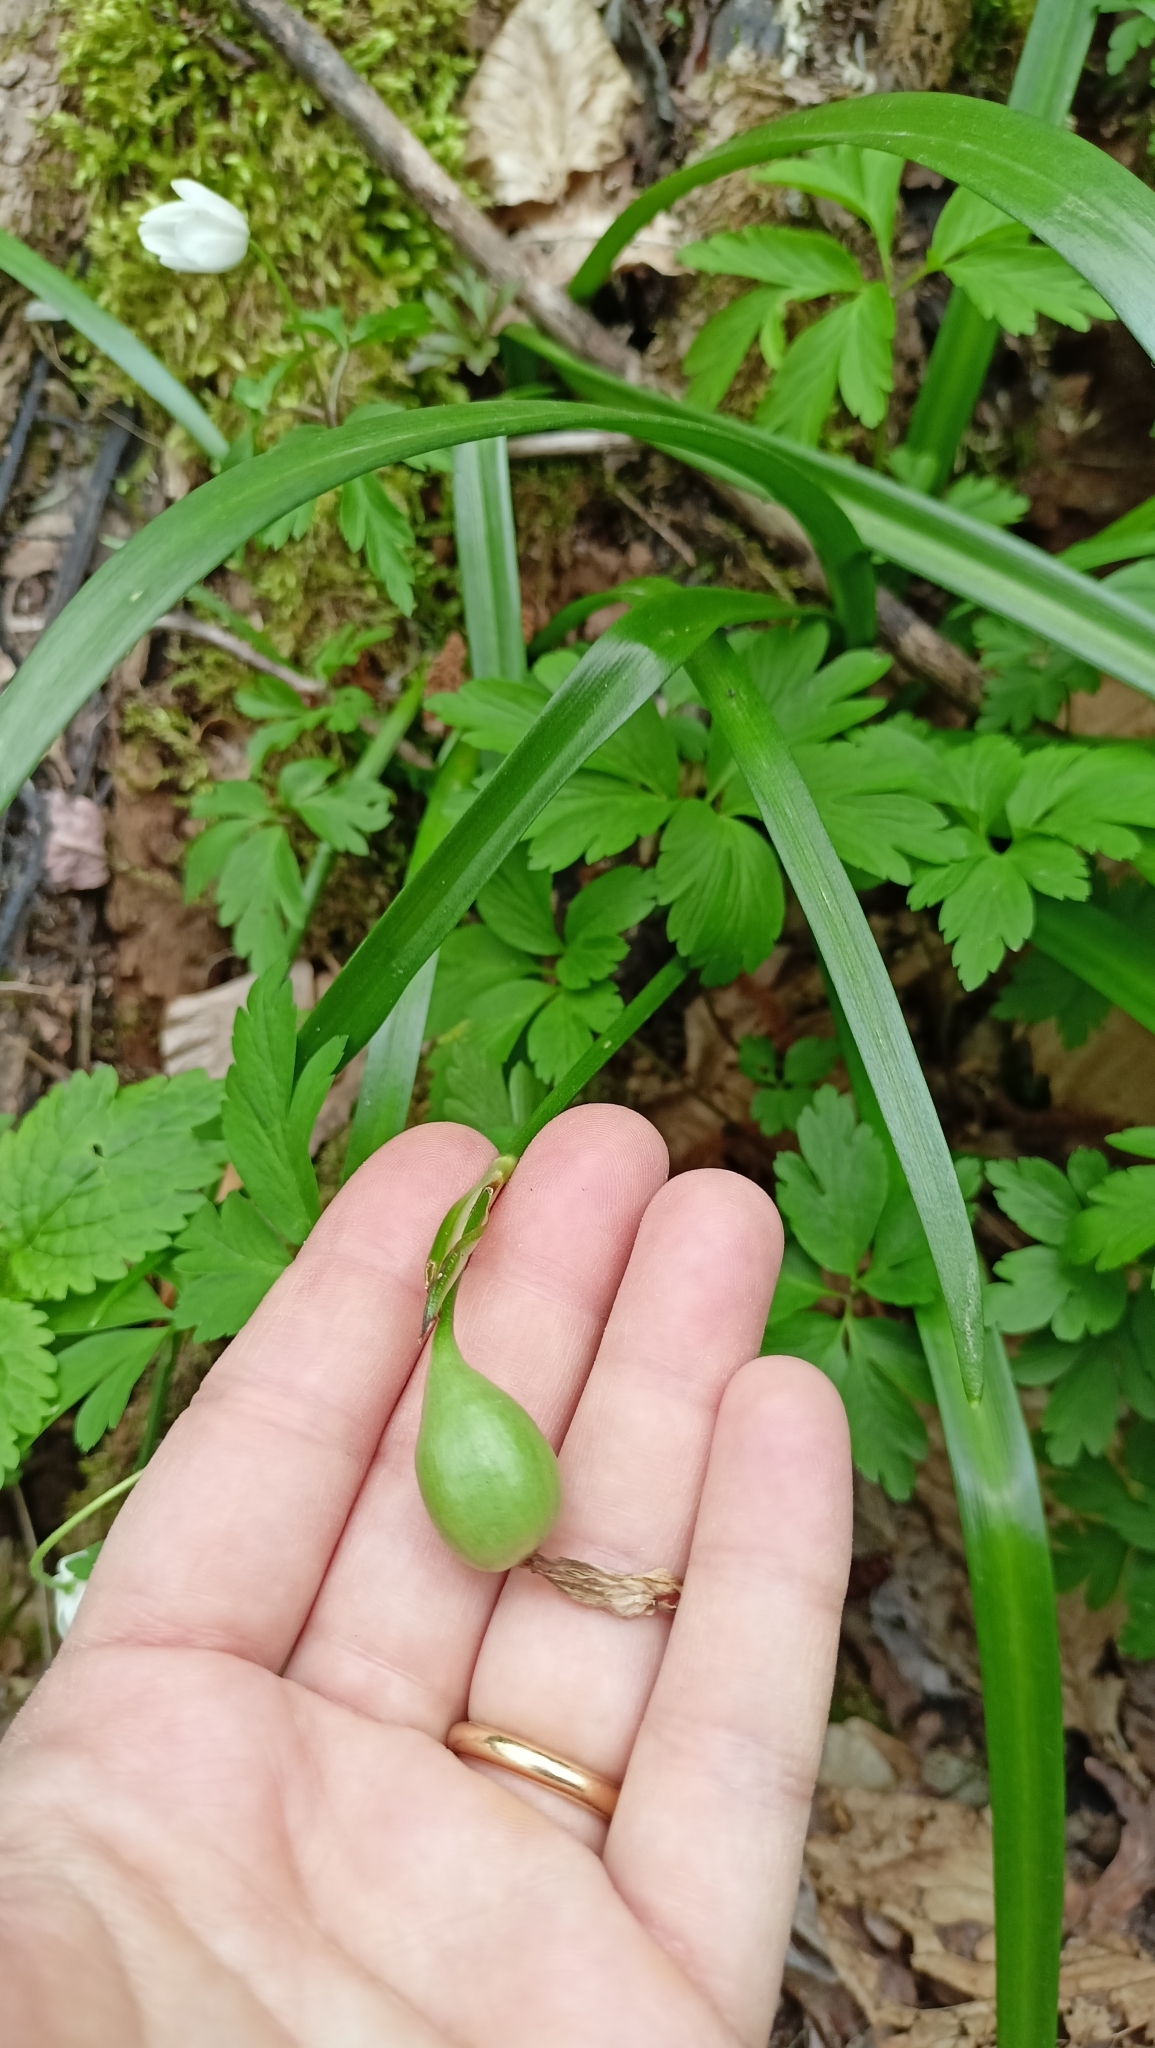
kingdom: Plantae
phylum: Tracheophyta
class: Liliopsida
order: Asparagales
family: Amaryllidaceae
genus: Leucojum
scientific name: Leucojum vernum
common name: Spring snowflake
